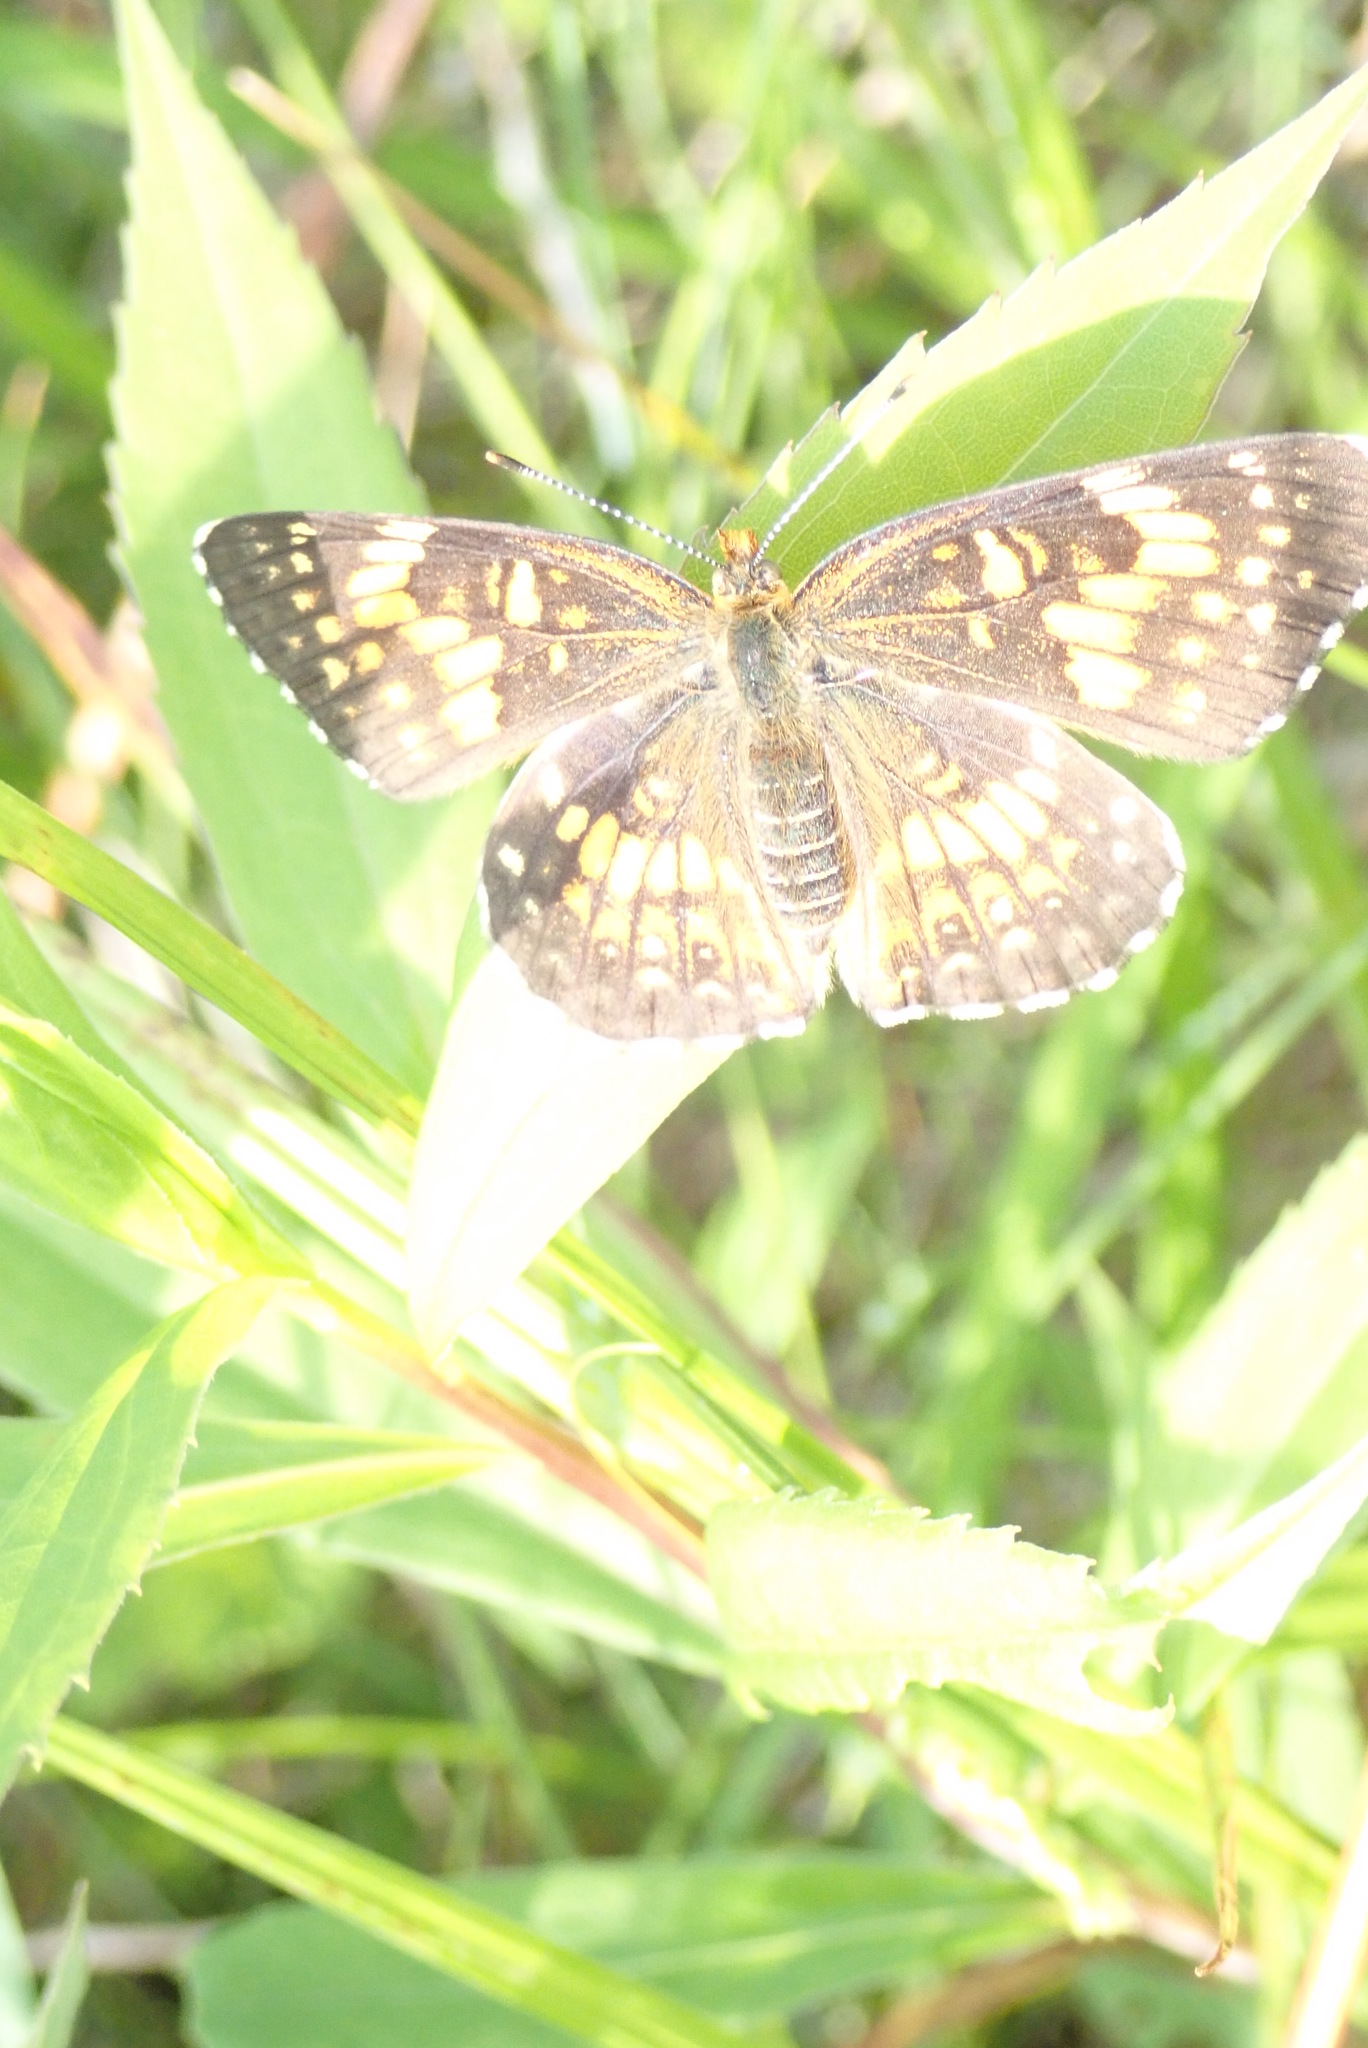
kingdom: Animalia
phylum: Arthropoda
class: Insecta
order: Lepidoptera
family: Nymphalidae
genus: Chlosyne
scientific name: Chlosyne nycteis
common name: Silvery checkerspot
